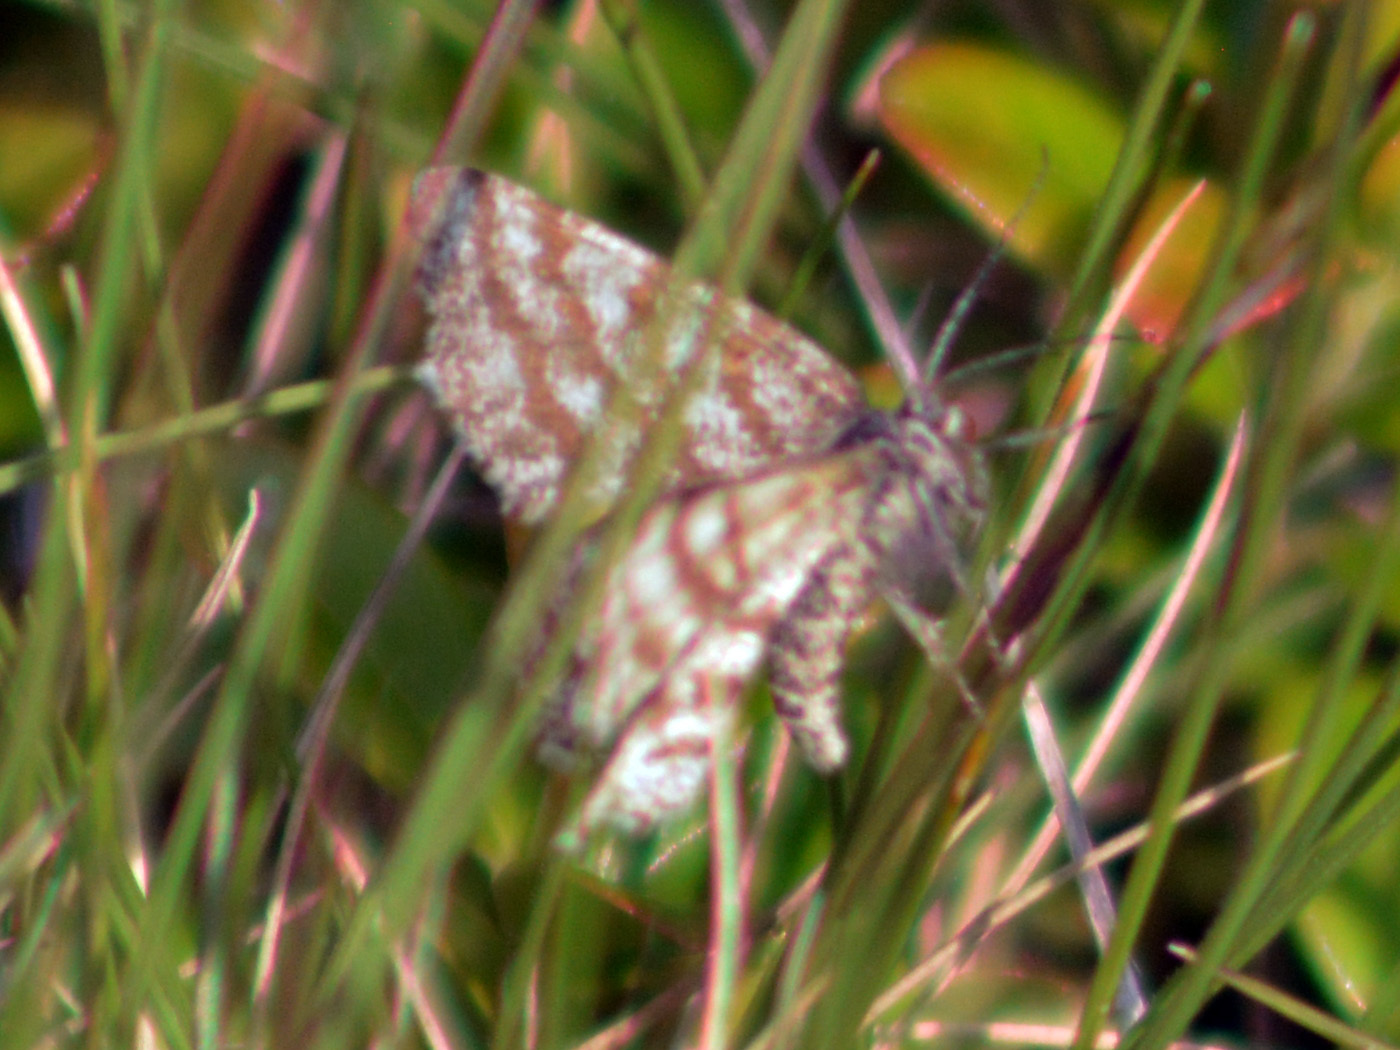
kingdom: Animalia
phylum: Arthropoda
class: Insecta
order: Lepidoptera
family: Geometridae
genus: Ematurga
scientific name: Ematurga atomaria
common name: Common heath
